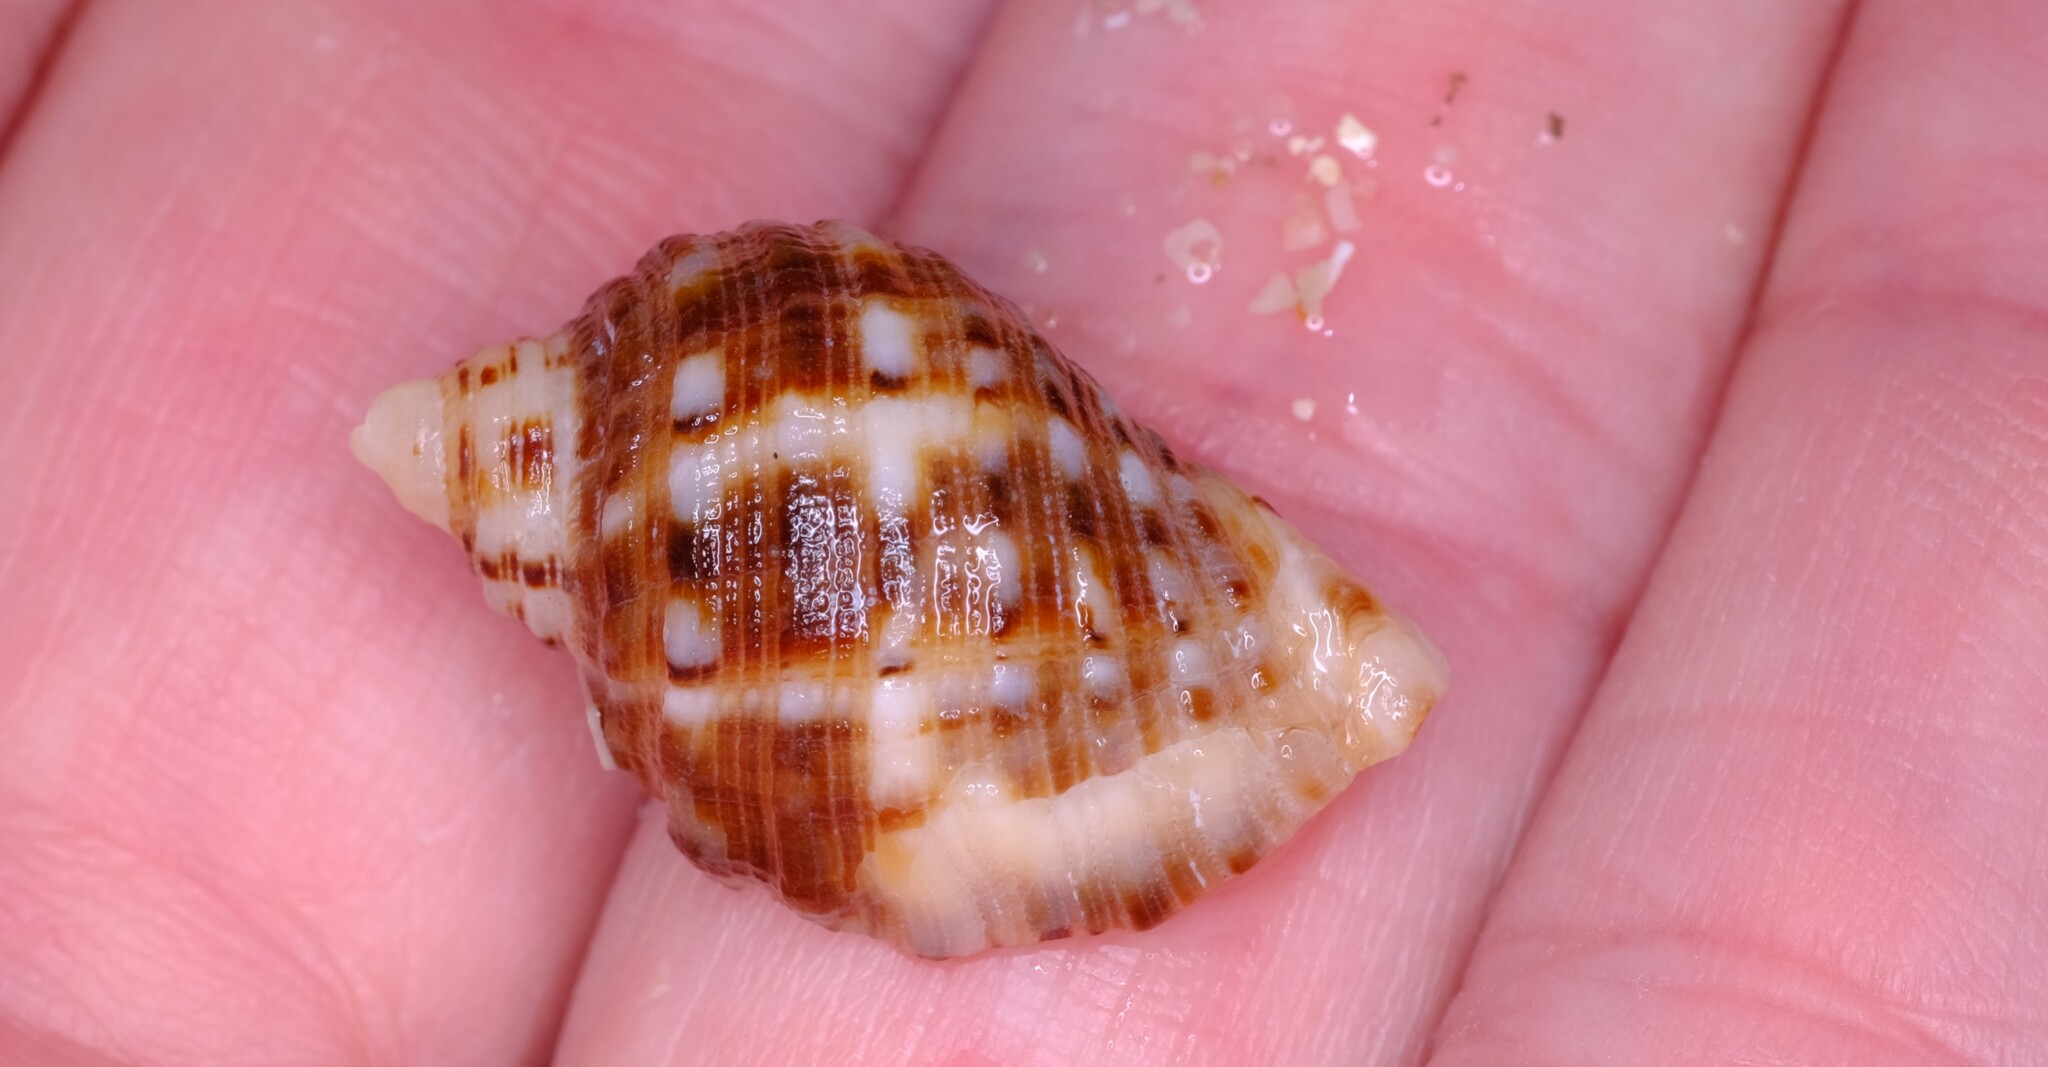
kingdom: Animalia
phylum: Mollusca
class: Gastropoda
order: Neogastropoda
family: Muricidae
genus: Dicathais
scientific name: Dicathais orbita
